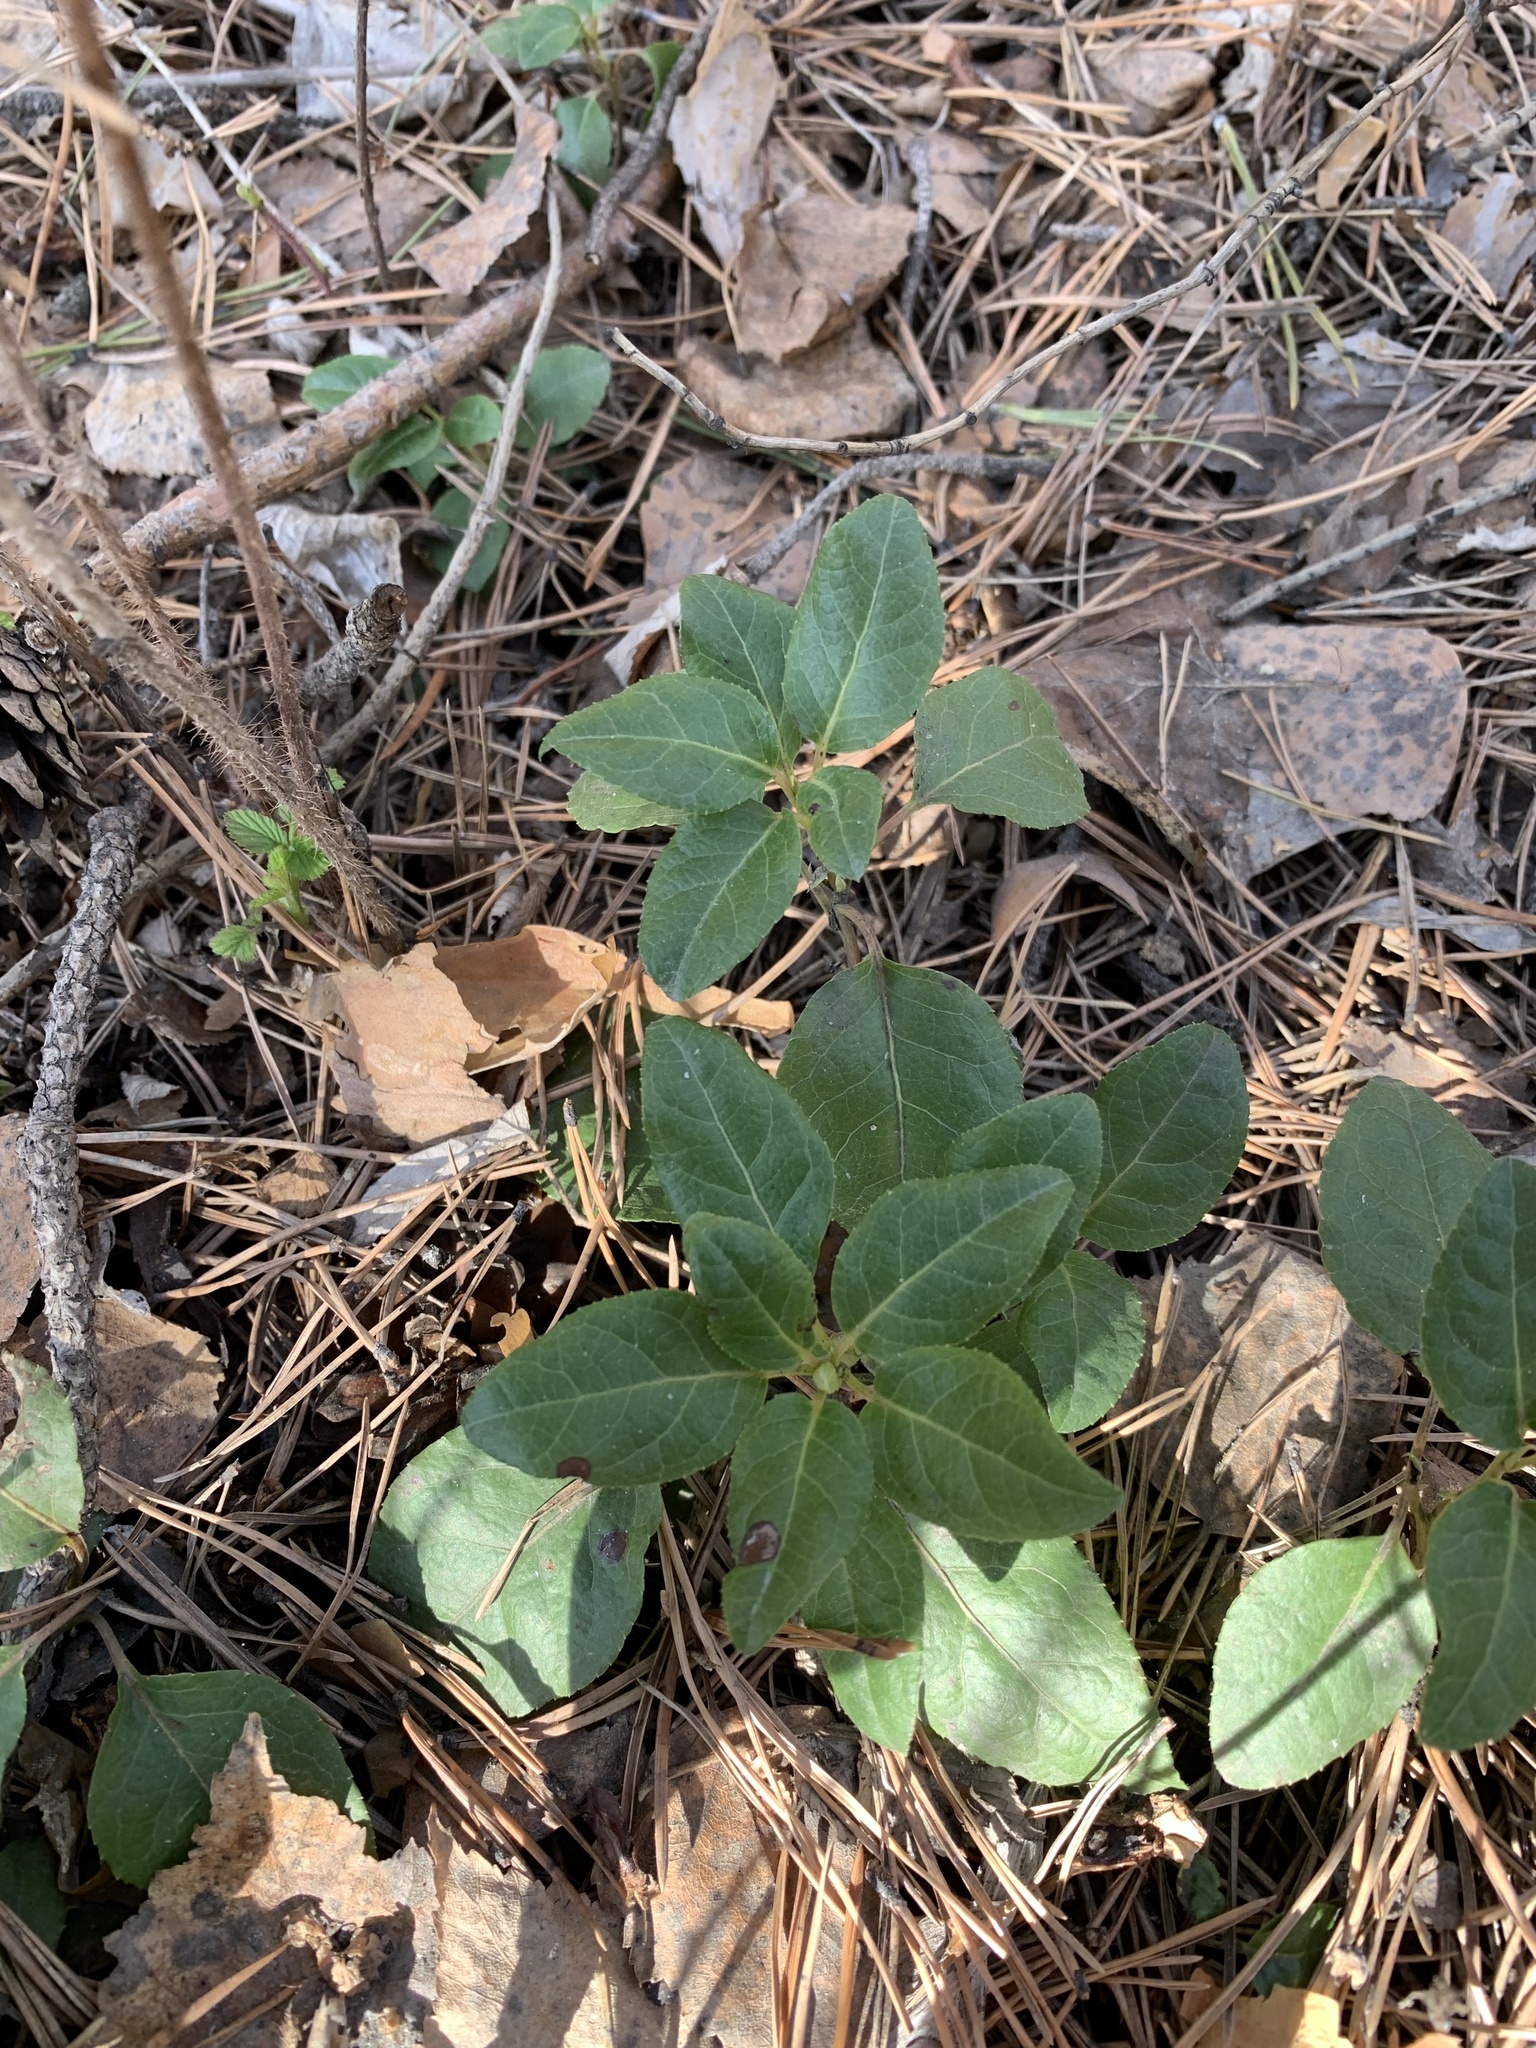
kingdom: Plantae
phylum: Tracheophyta
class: Magnoliopsida
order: Ericales
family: Ericaceae
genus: Orthilia
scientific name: Orthilia secunda
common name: One-sided orthilia
